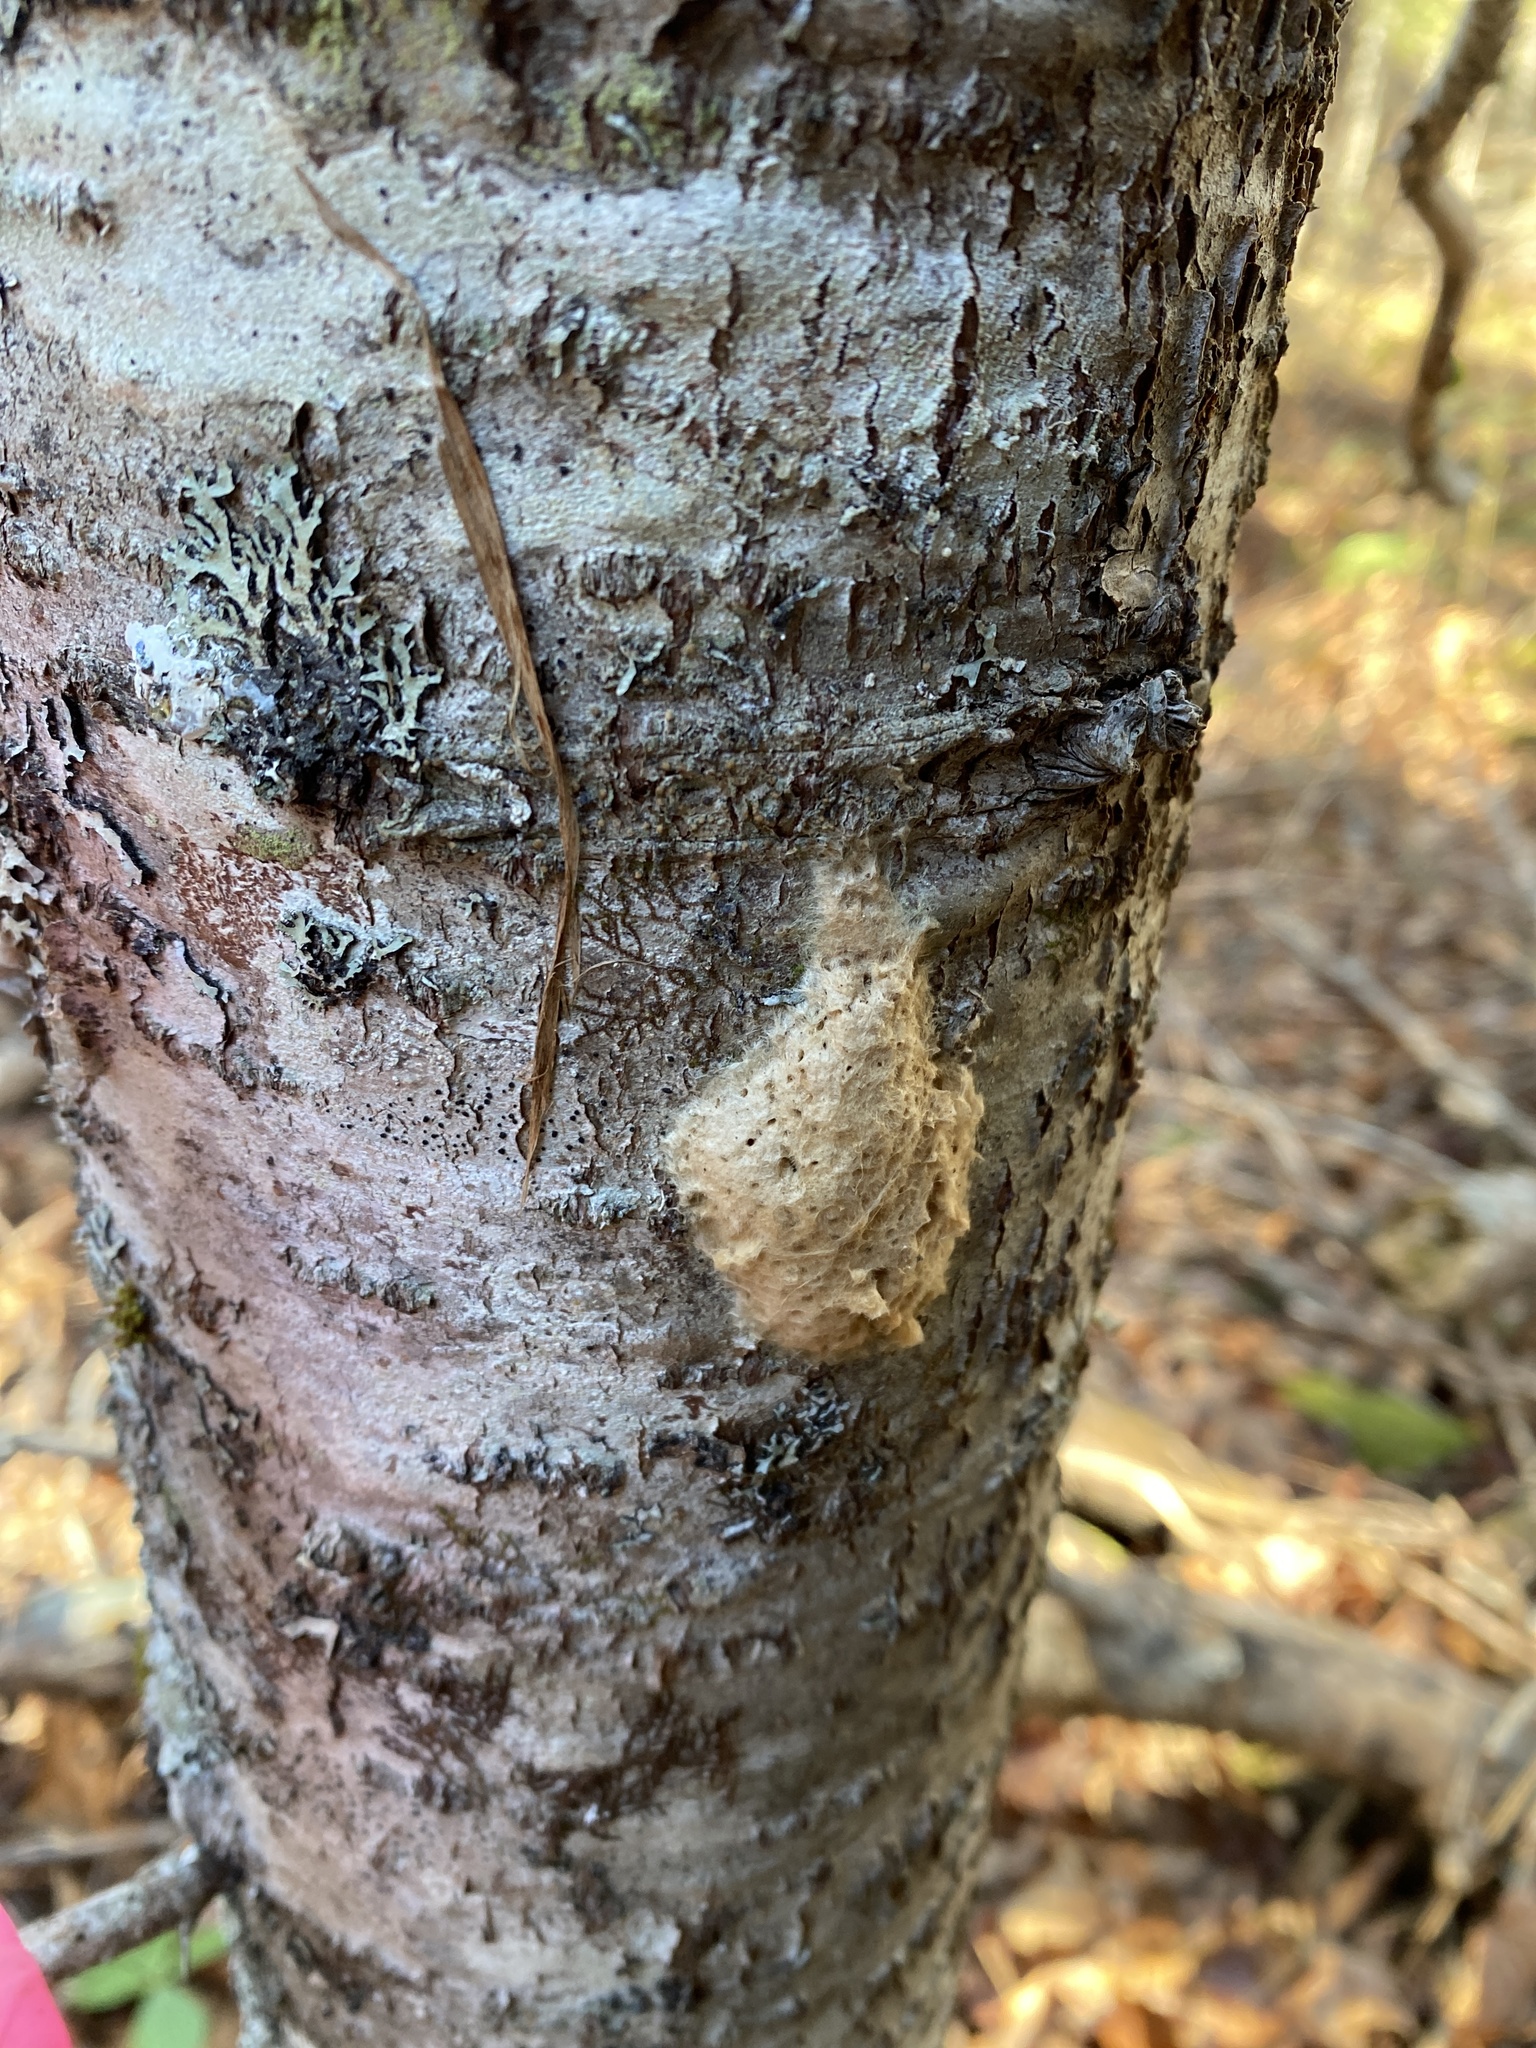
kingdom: Animalia
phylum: Arthropoda
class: Insecta
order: Lepidoptera
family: Erebidae
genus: Lymantria
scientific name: Lymantria dispar
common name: Gypsy moth
